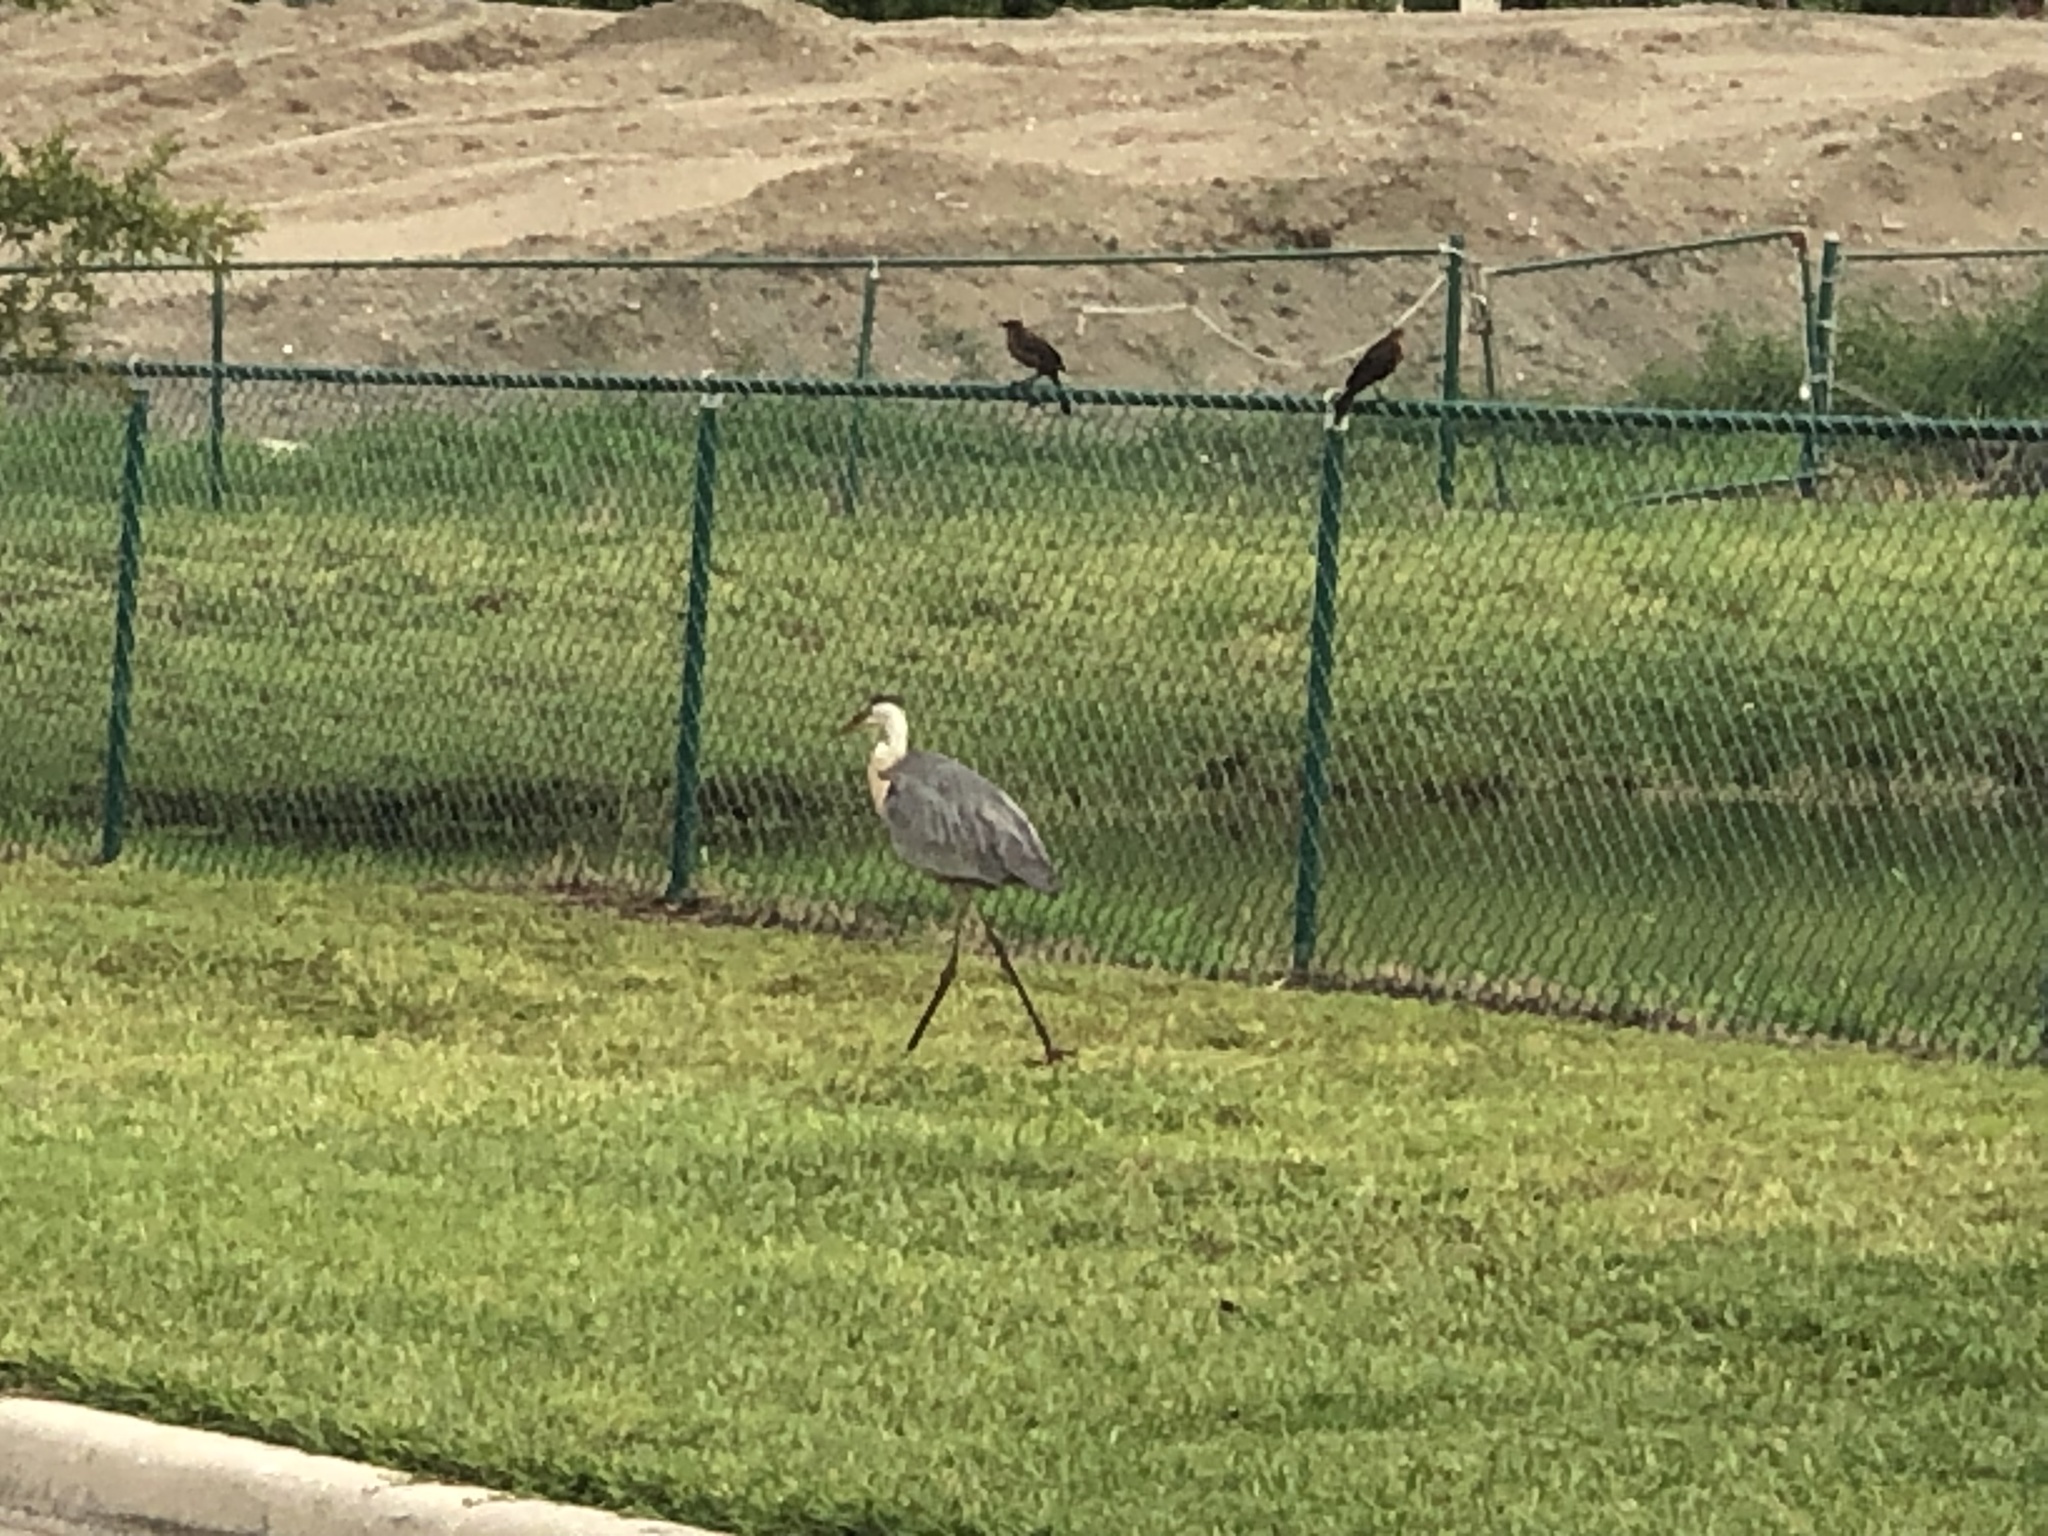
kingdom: Animalia
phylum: Chordata
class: Aves
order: Pelecaniformes
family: Ardeidae
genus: Ardea
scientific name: Ardea herodias
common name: Great blue heron
